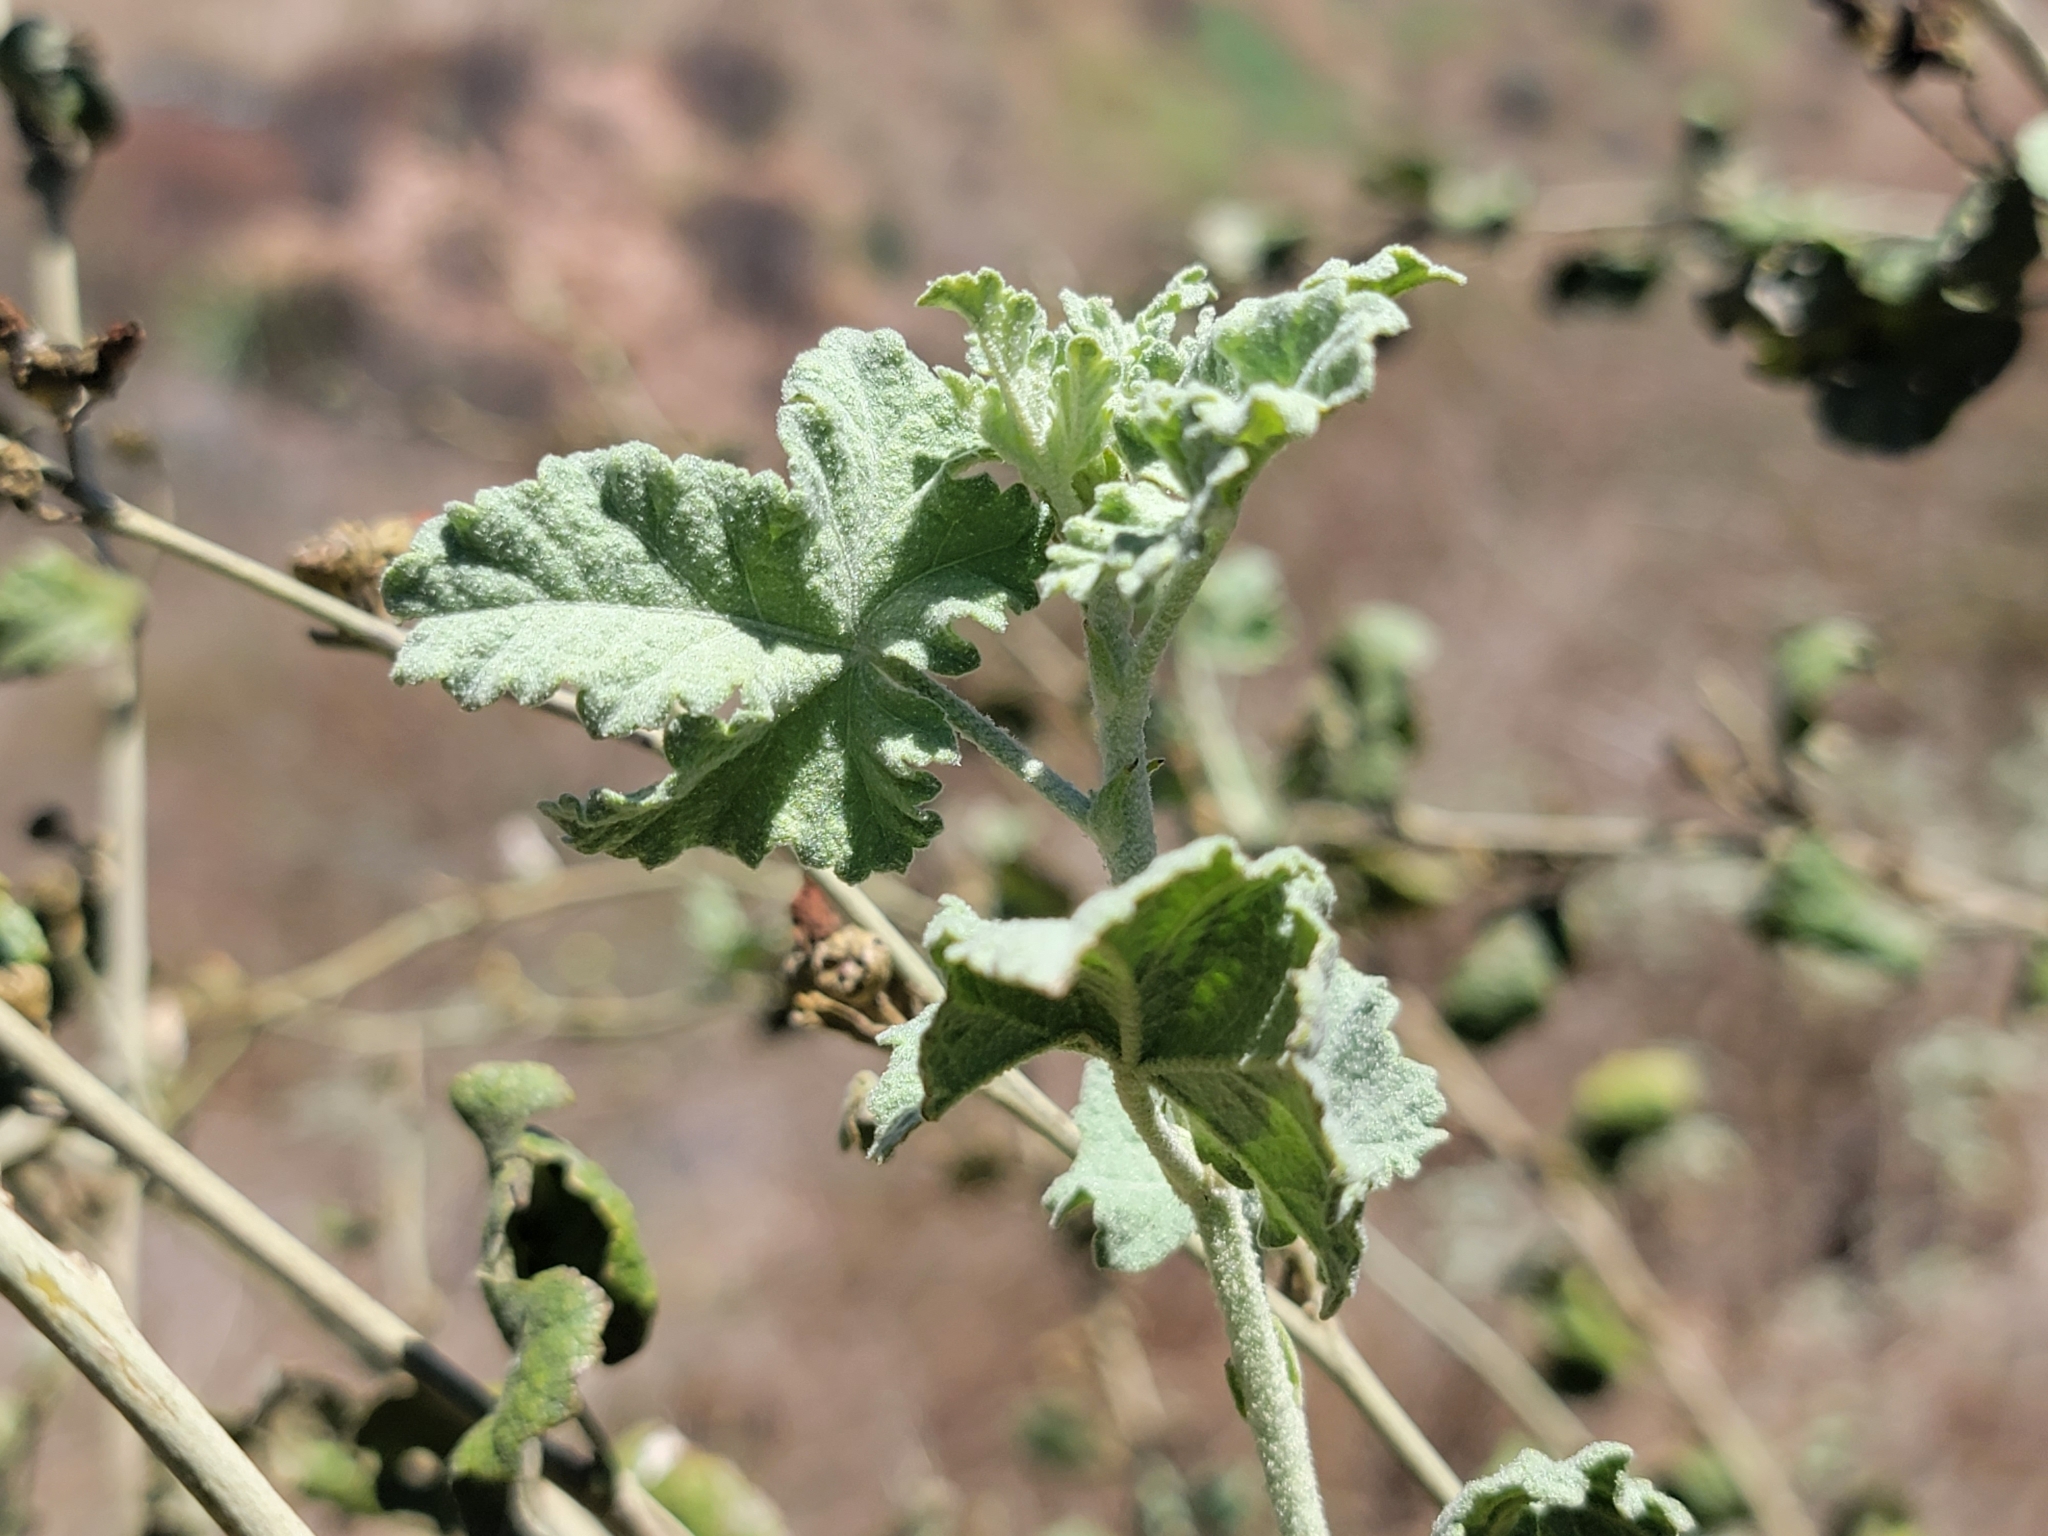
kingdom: Plantae
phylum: Tracheophyta
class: Magnoliopsida
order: Malvales
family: Malvaceae
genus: Malacothamnus
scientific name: Malacothamnus fasciculatus
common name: Sant cruz island bush-mallow
